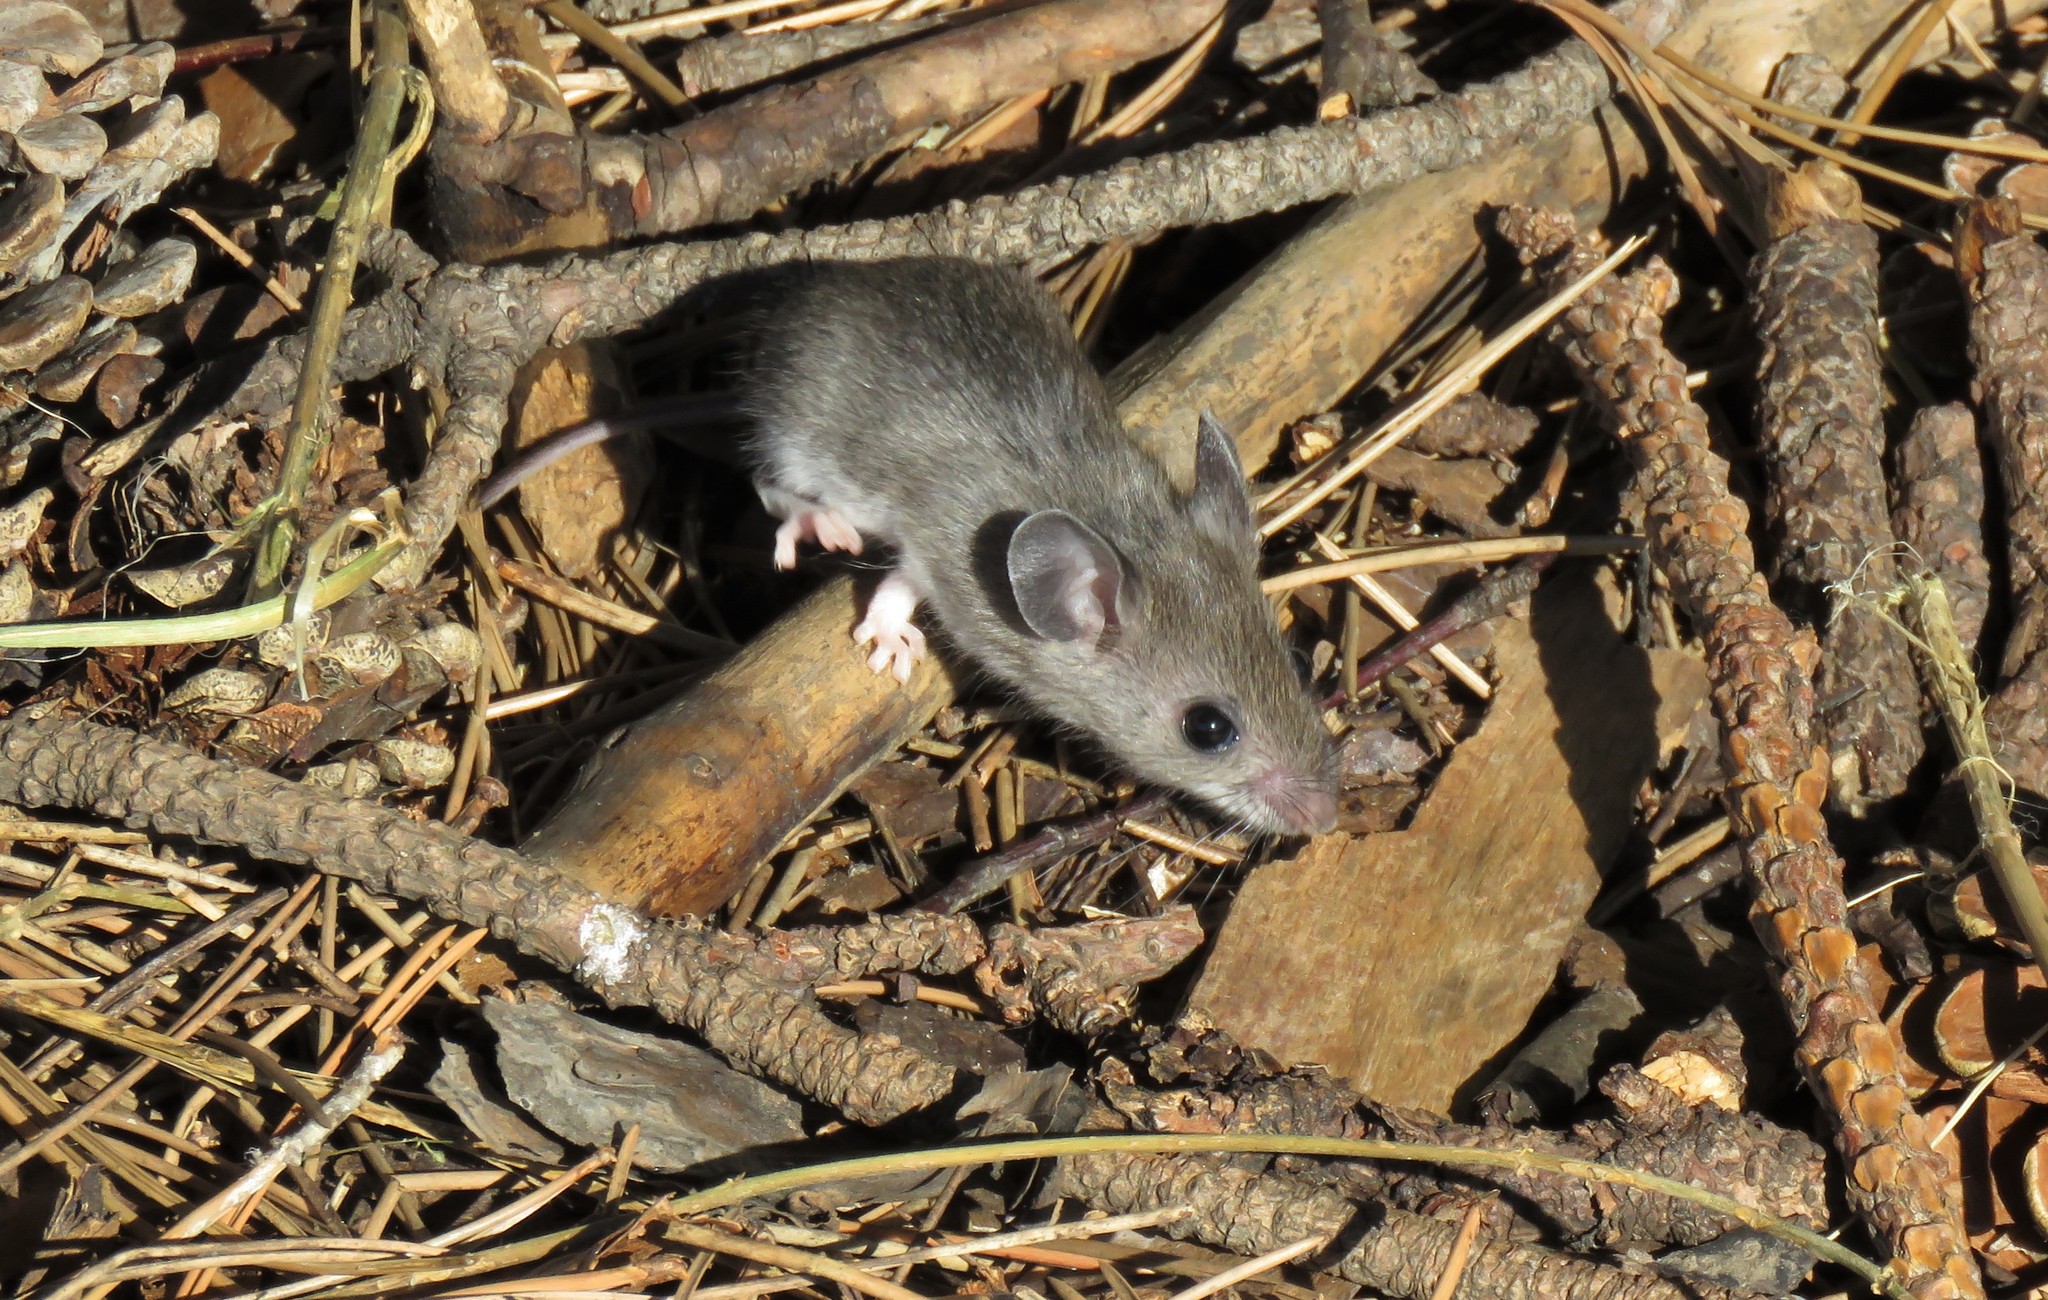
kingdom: Animalia
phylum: Chordata
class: Mammalia
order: Rodentia
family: Cricetidae
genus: Peromyscus
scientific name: Peromyscus
